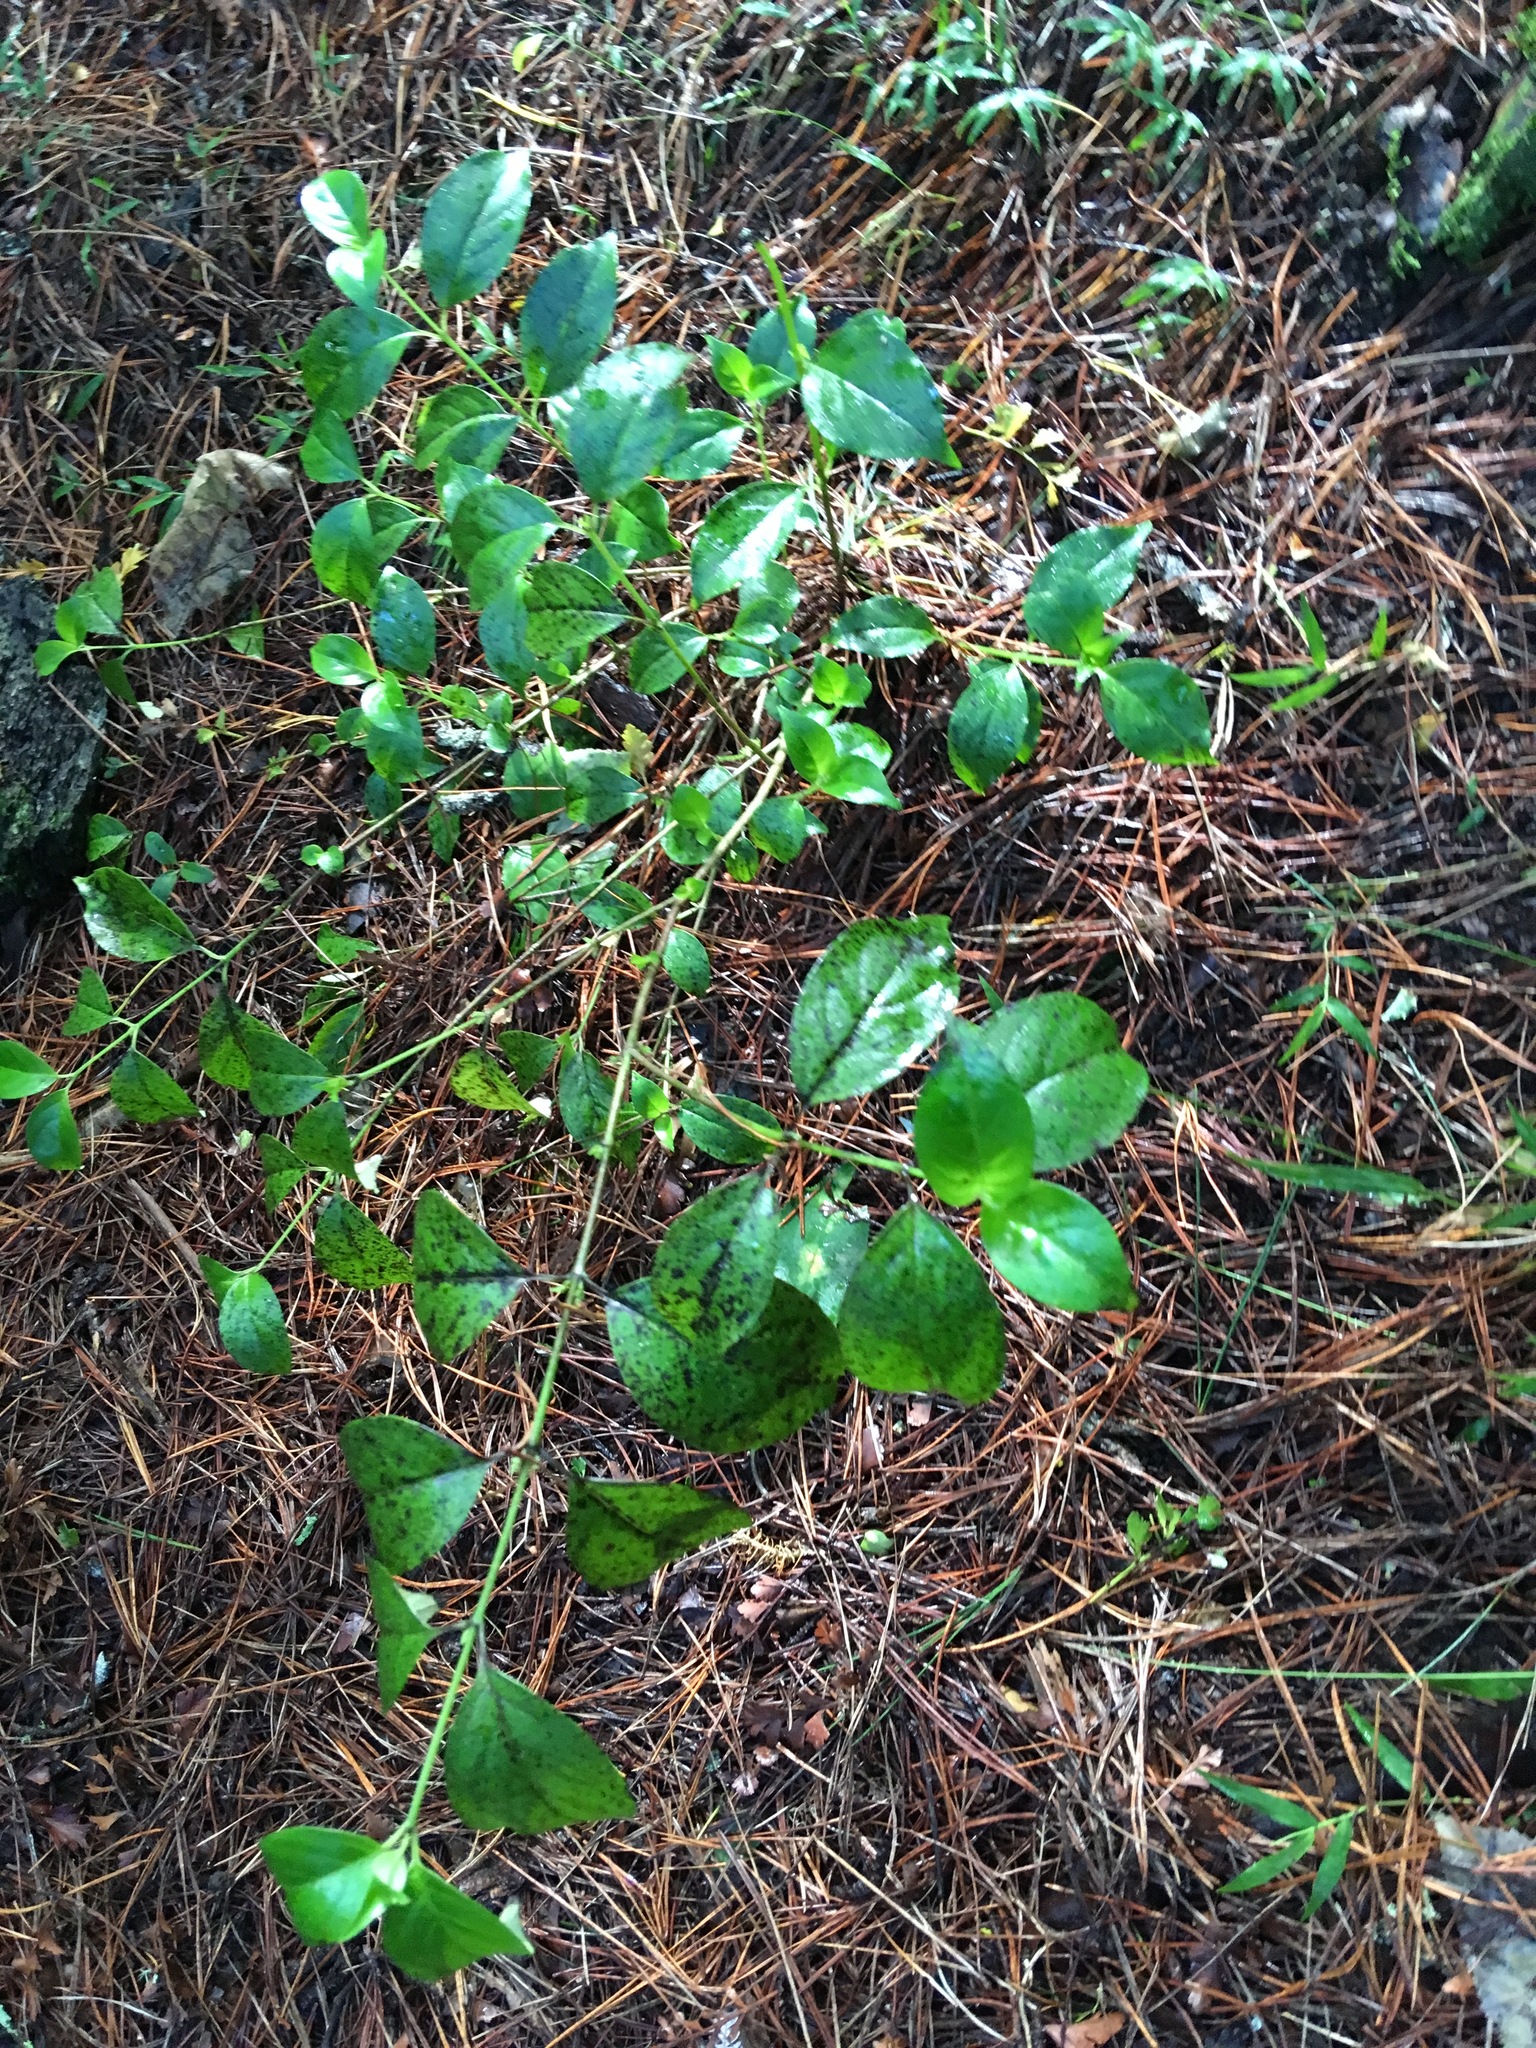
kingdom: Plantae
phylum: Tracheophyta
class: Magnoliopsida
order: Gentianales
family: Loganiaceae
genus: Geniostoma
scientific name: Geniostoma ligustrifolium
